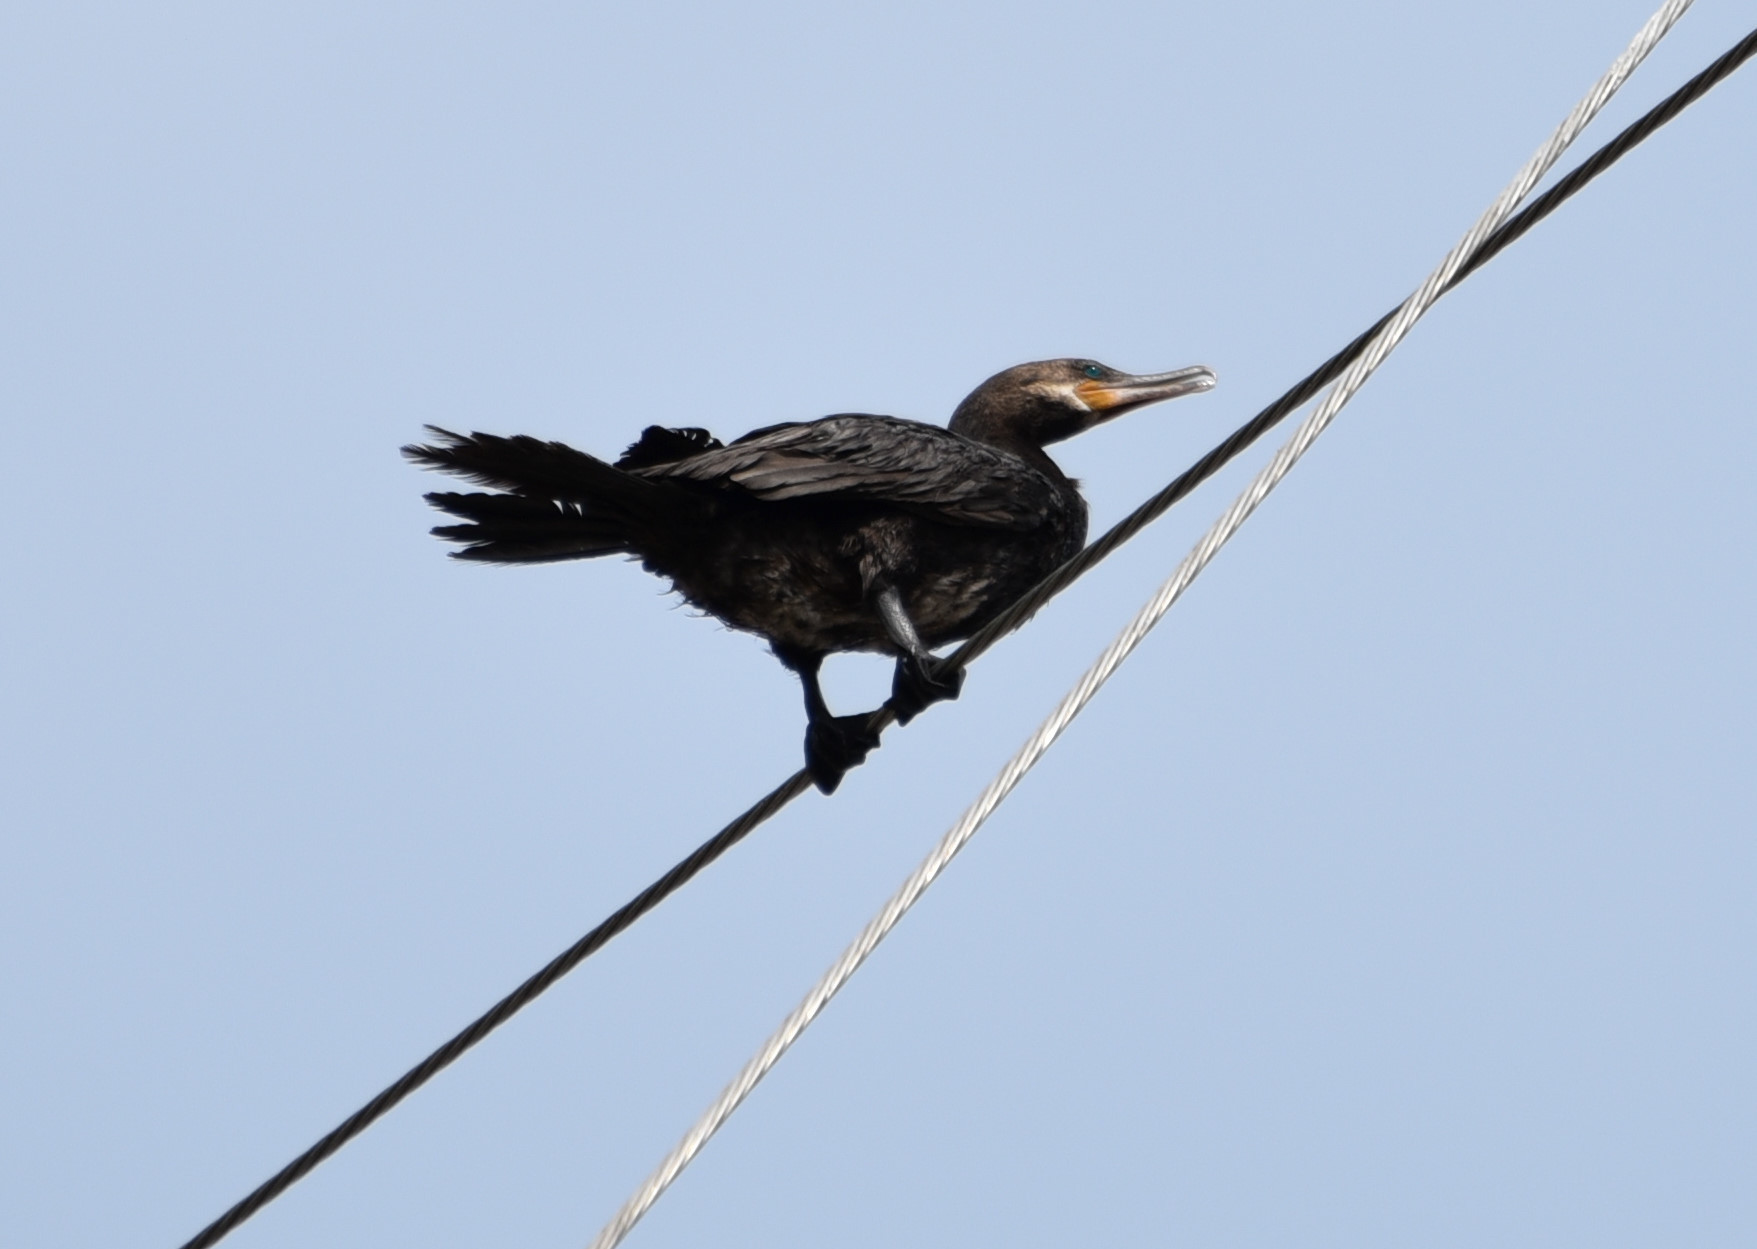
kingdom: Animalia
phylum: Chordata
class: Aves
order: Suliformes
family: Phalacrocoracidae
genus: Phalacrocorax
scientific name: Phalacrocorax brasilianus
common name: Neotropic cormorant
